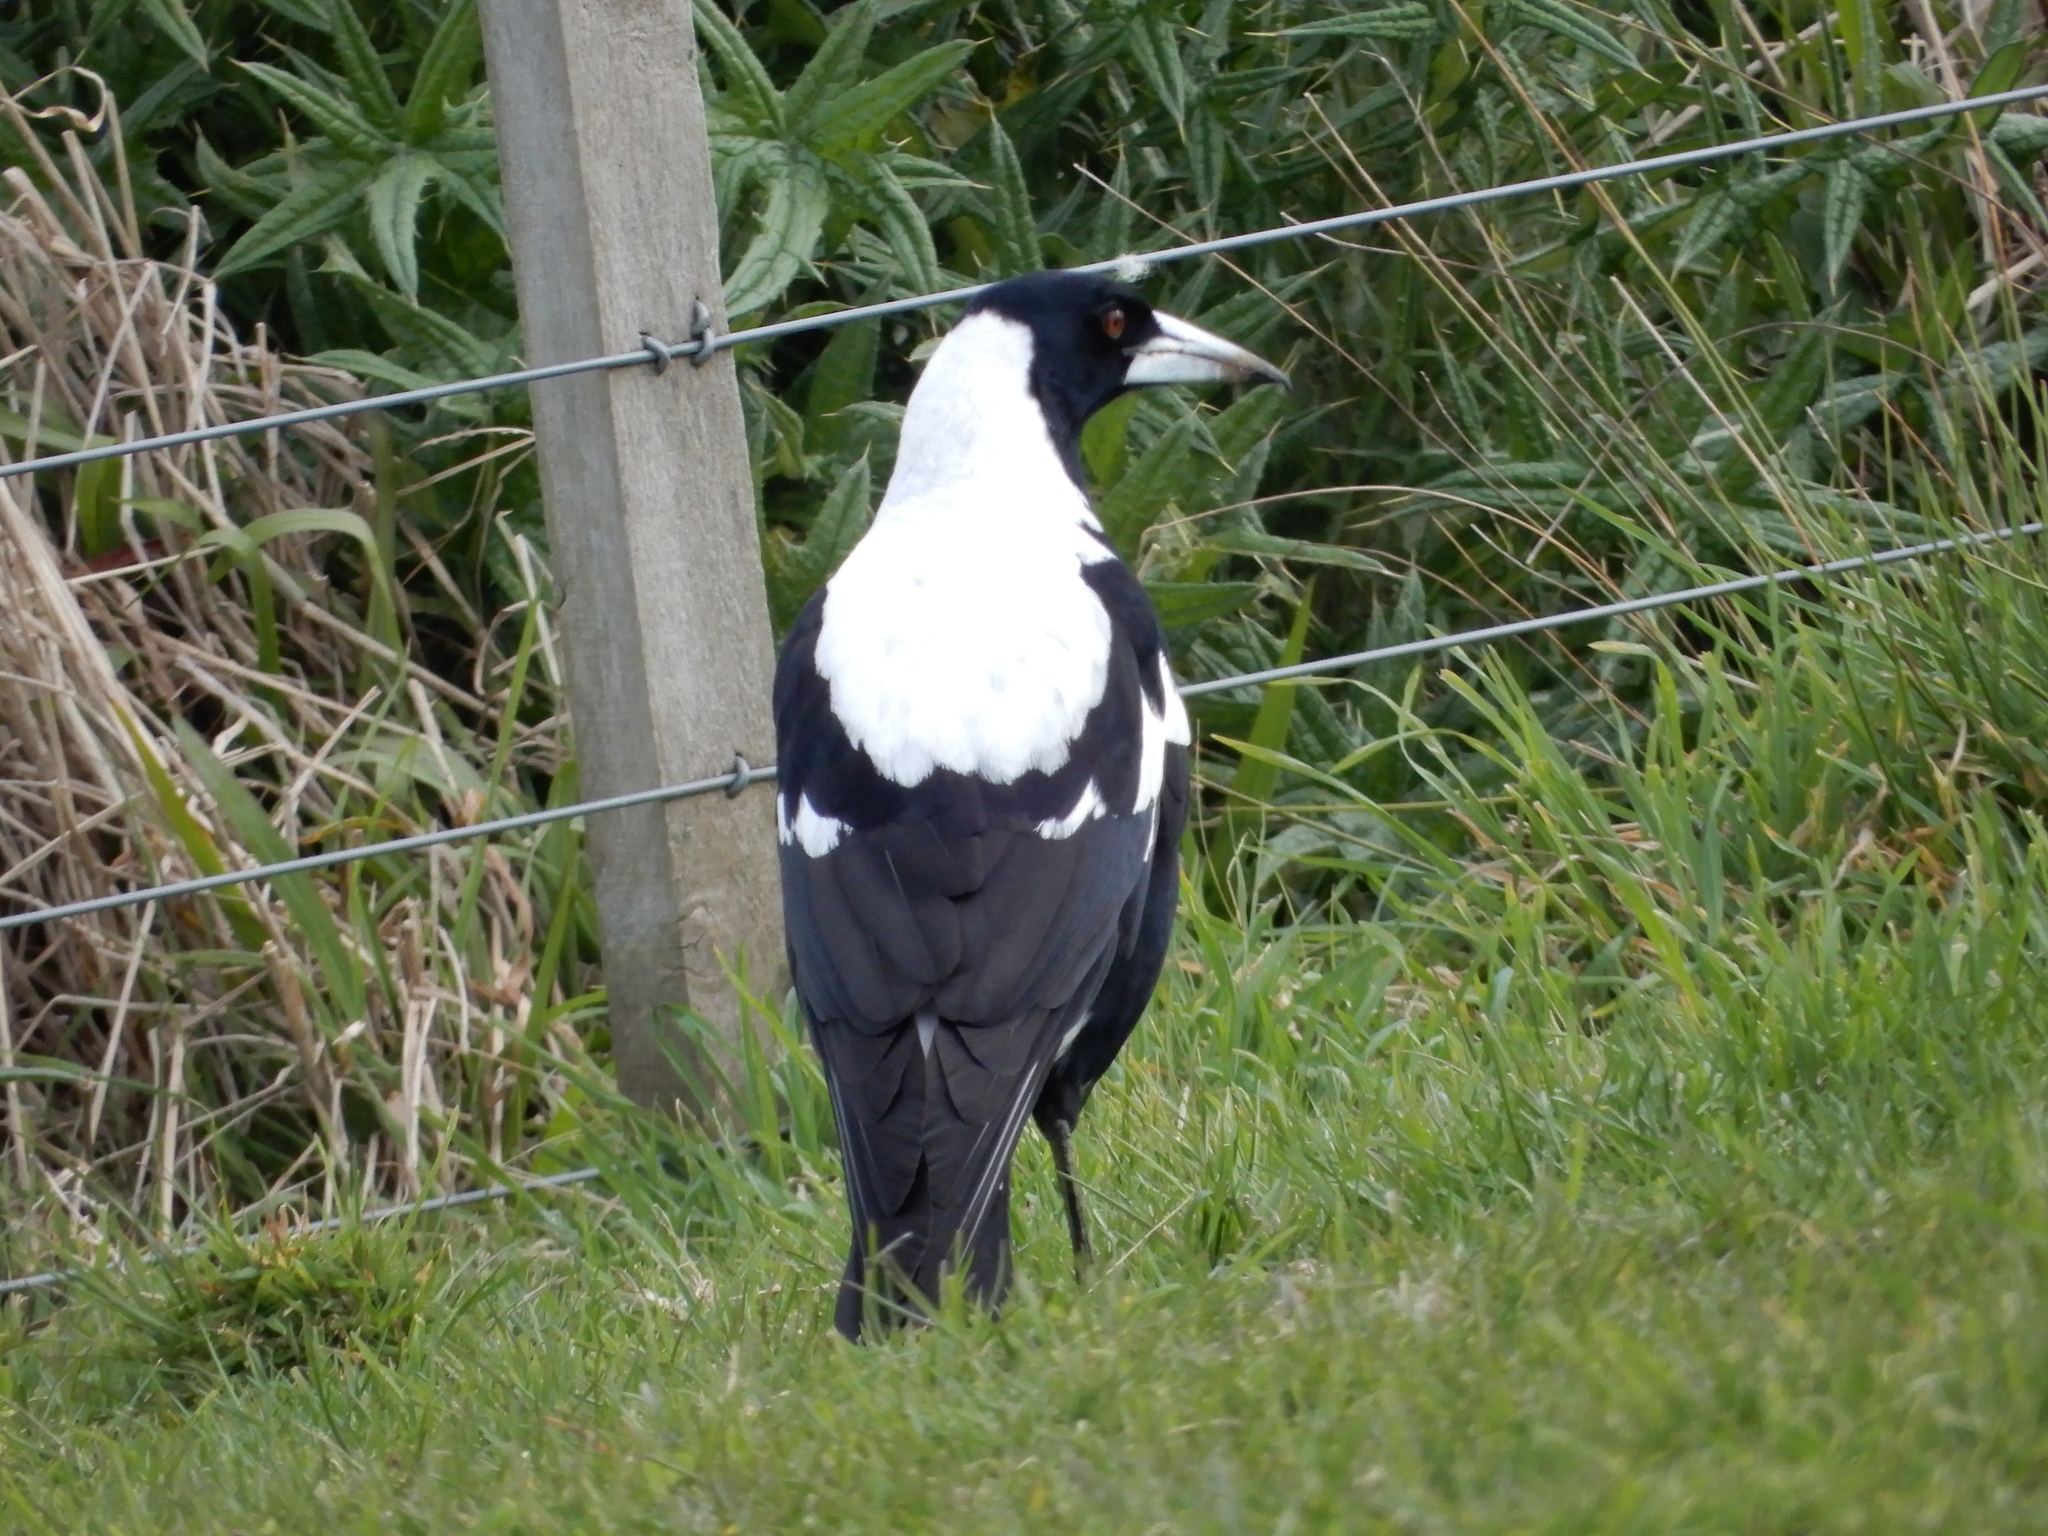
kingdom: Animalia
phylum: Chordata
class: Aves
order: Passeriformes
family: Cracticidae
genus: Gymnorhina
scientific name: Gymnorhina tibicen
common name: Australian magpie
